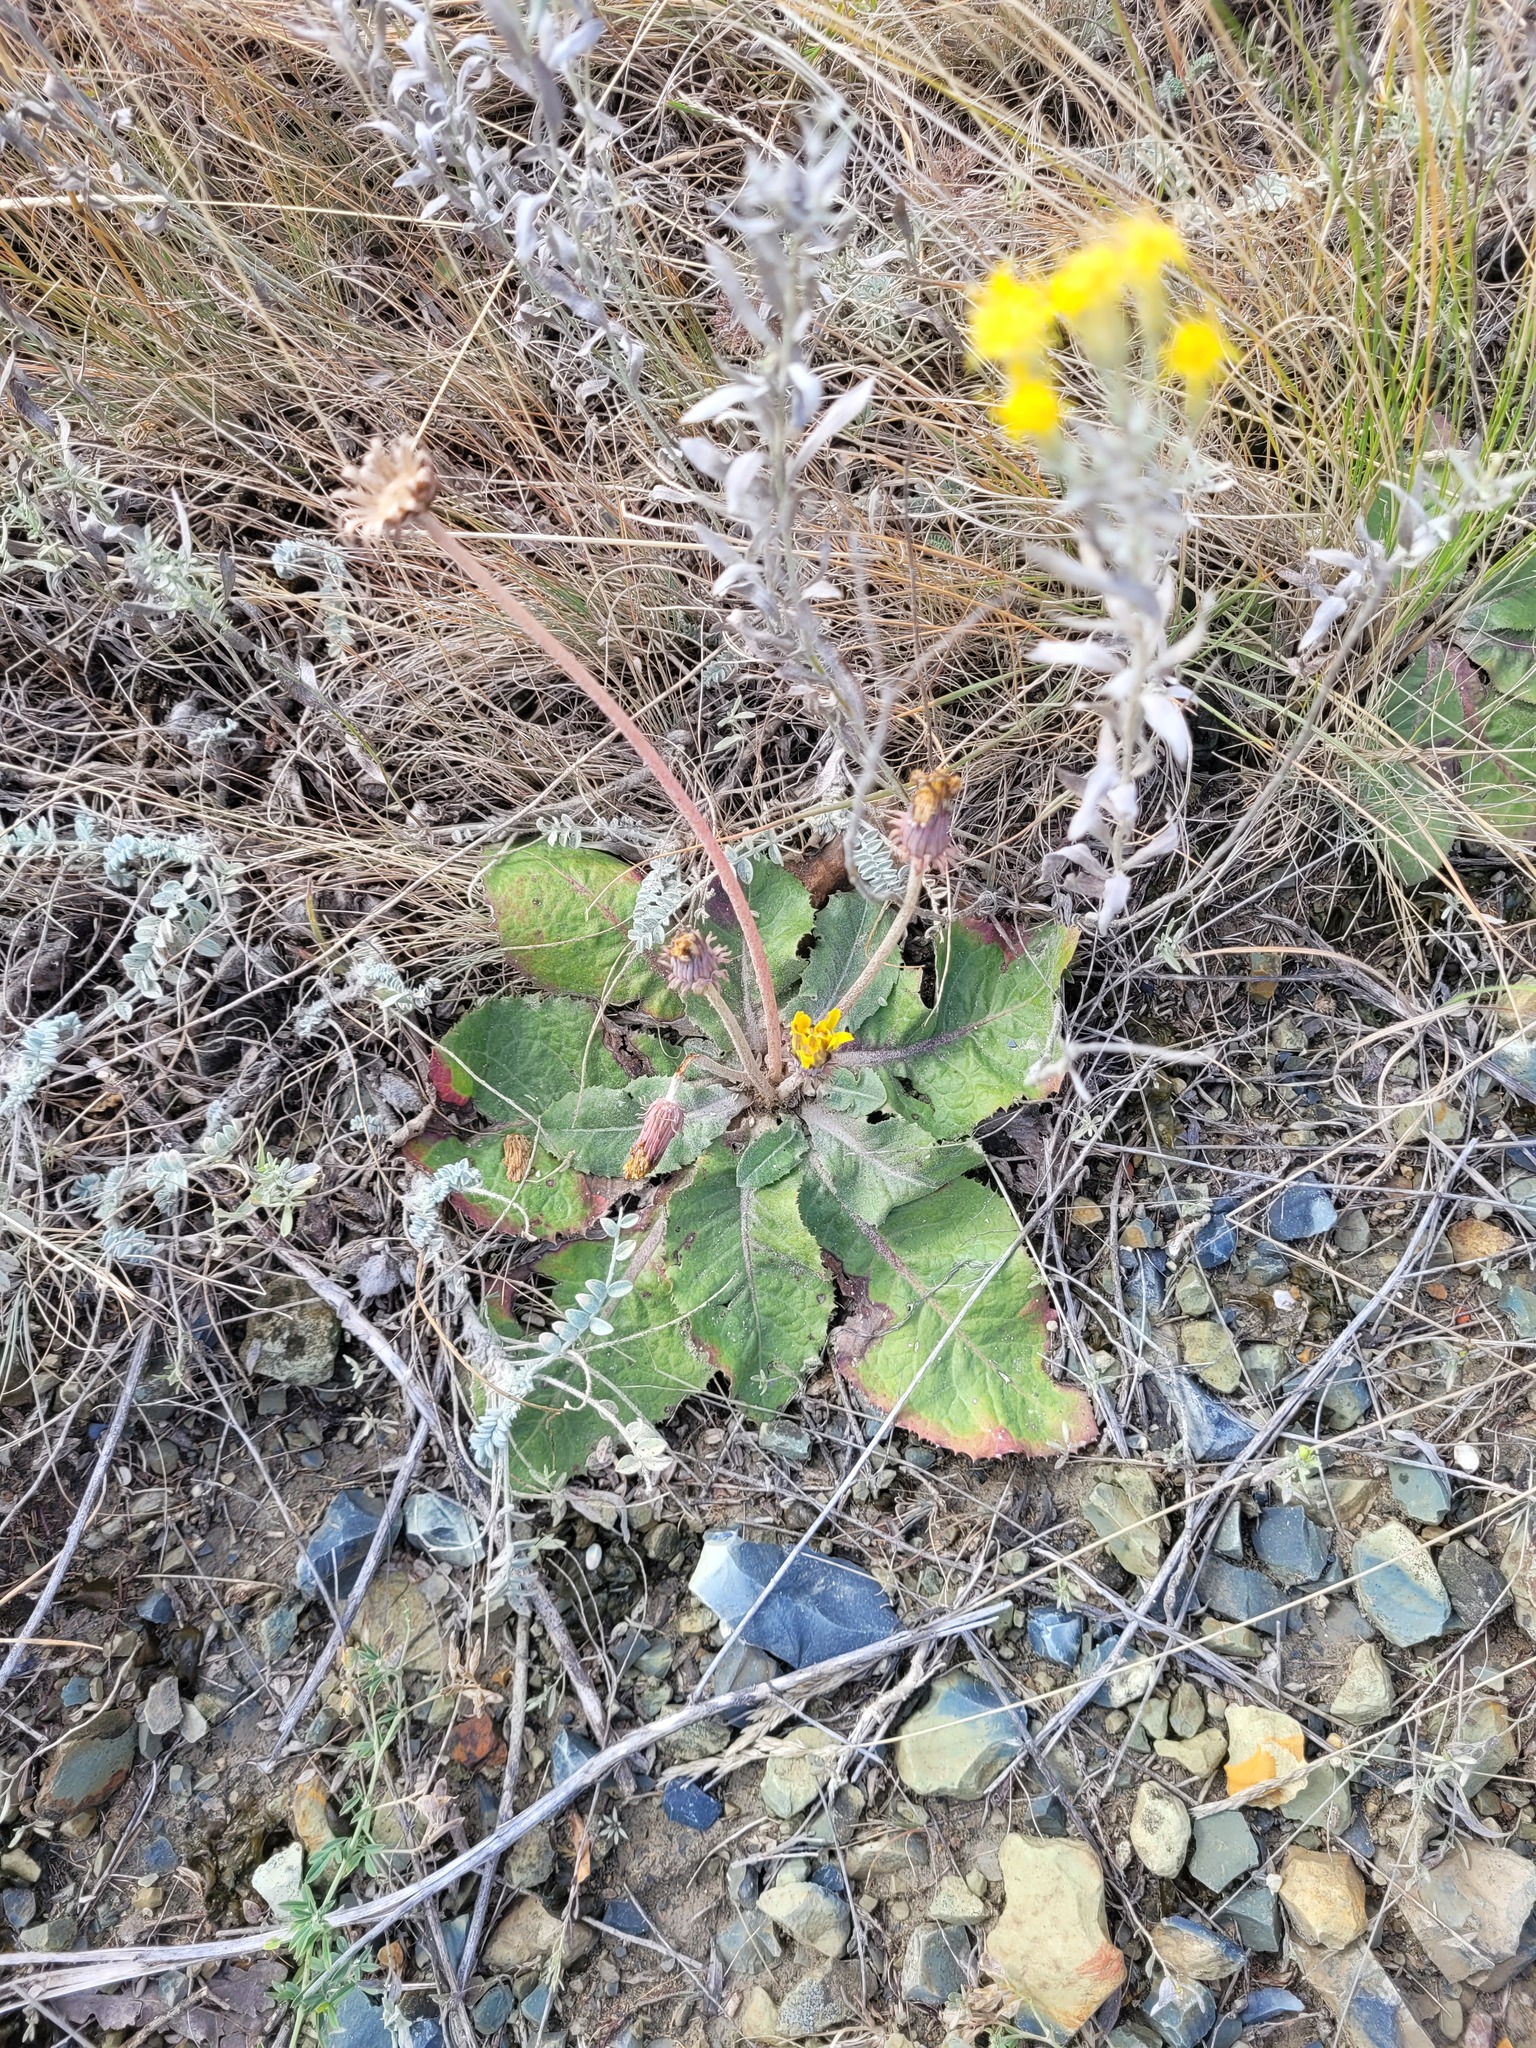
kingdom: Plantae
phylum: Tracheophyta
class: Magnoliopsida
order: Asterales
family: Asteraceae
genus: Taraxacum
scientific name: Taraxacum serotinum
